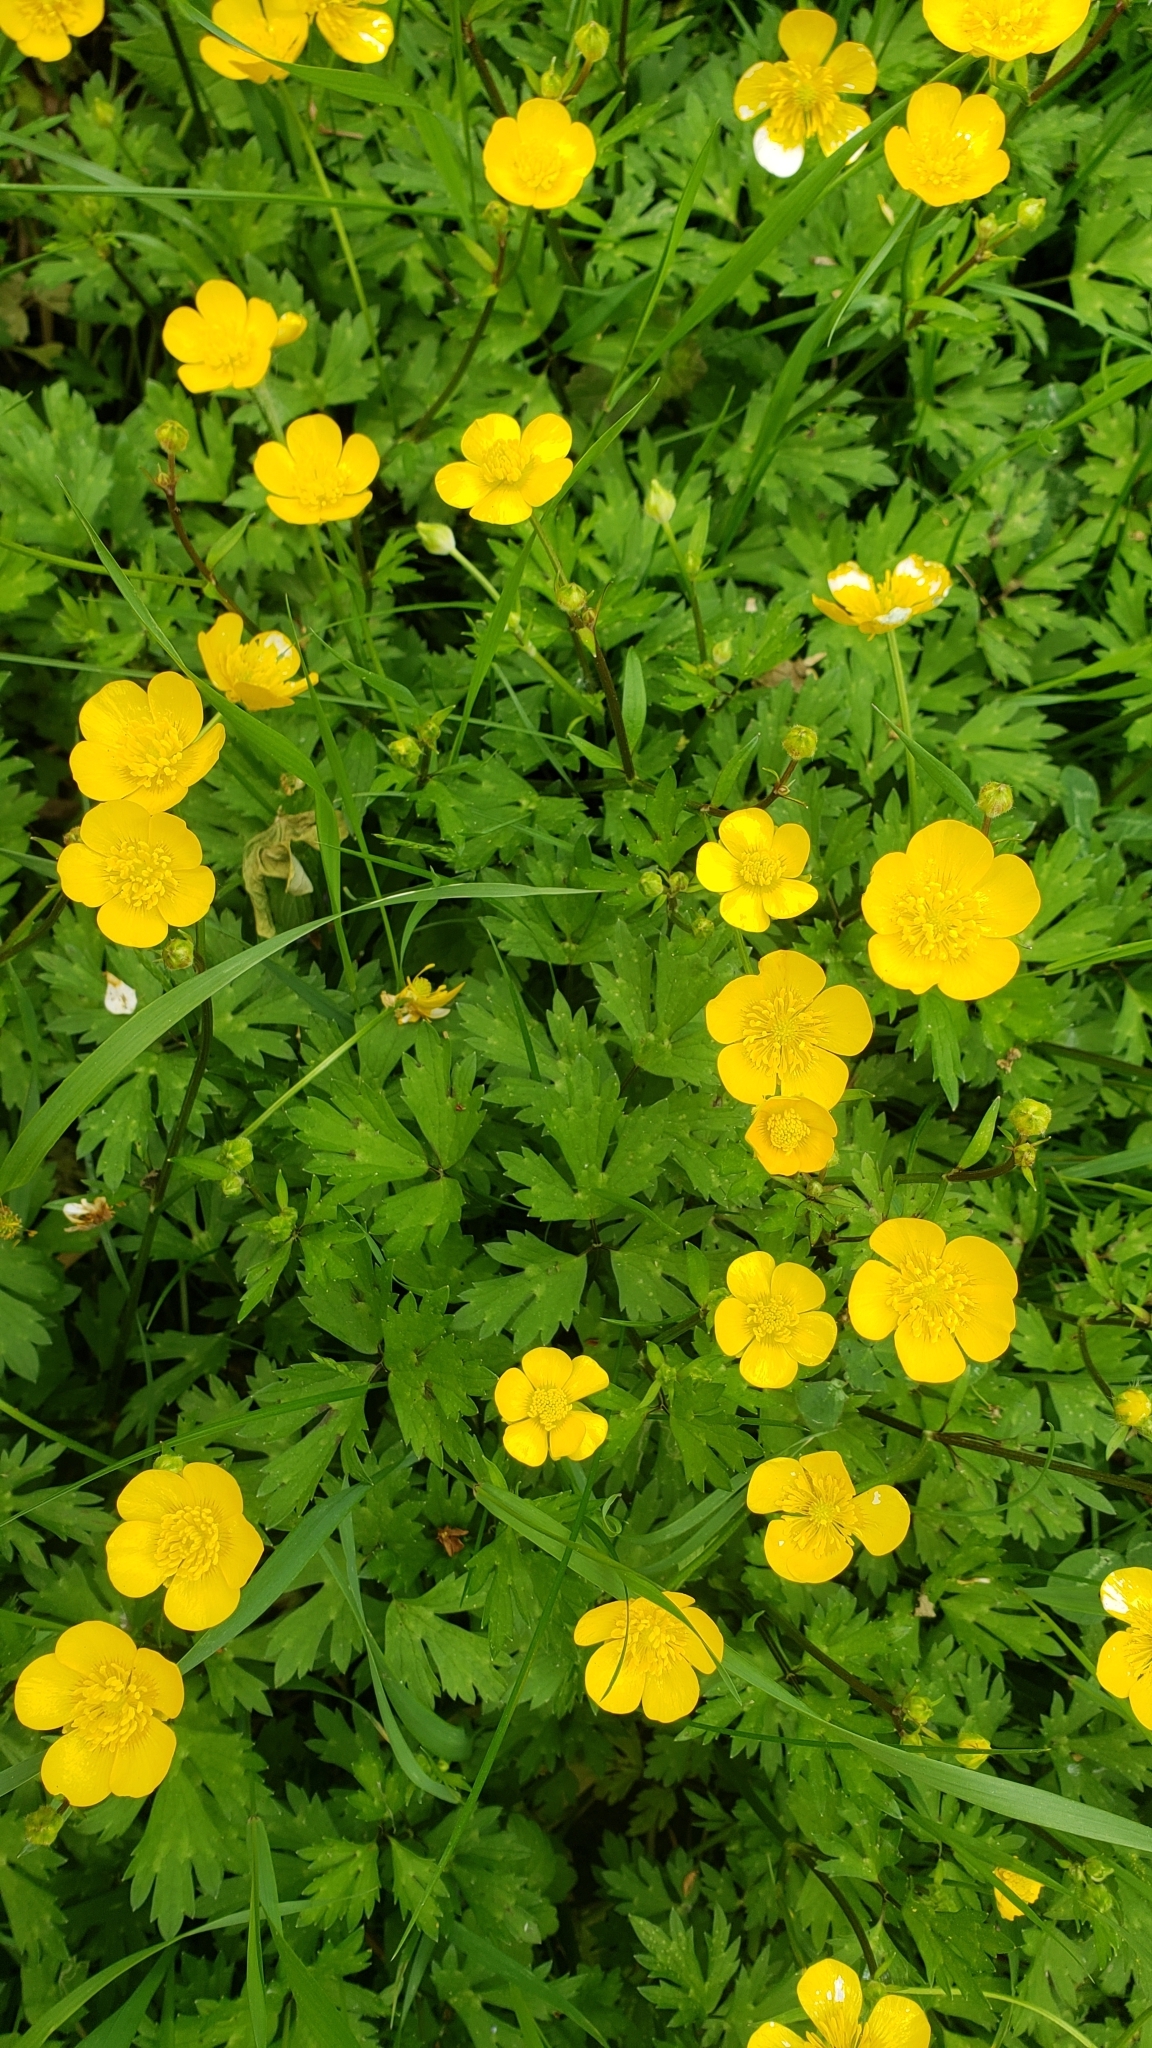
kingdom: Plantae
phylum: Tracheophyta
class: Magnoliopsida
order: Ranunculales
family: Ranunculaceae
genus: Ranunculus
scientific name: Ranunculus repens
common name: Creeping buttercup
